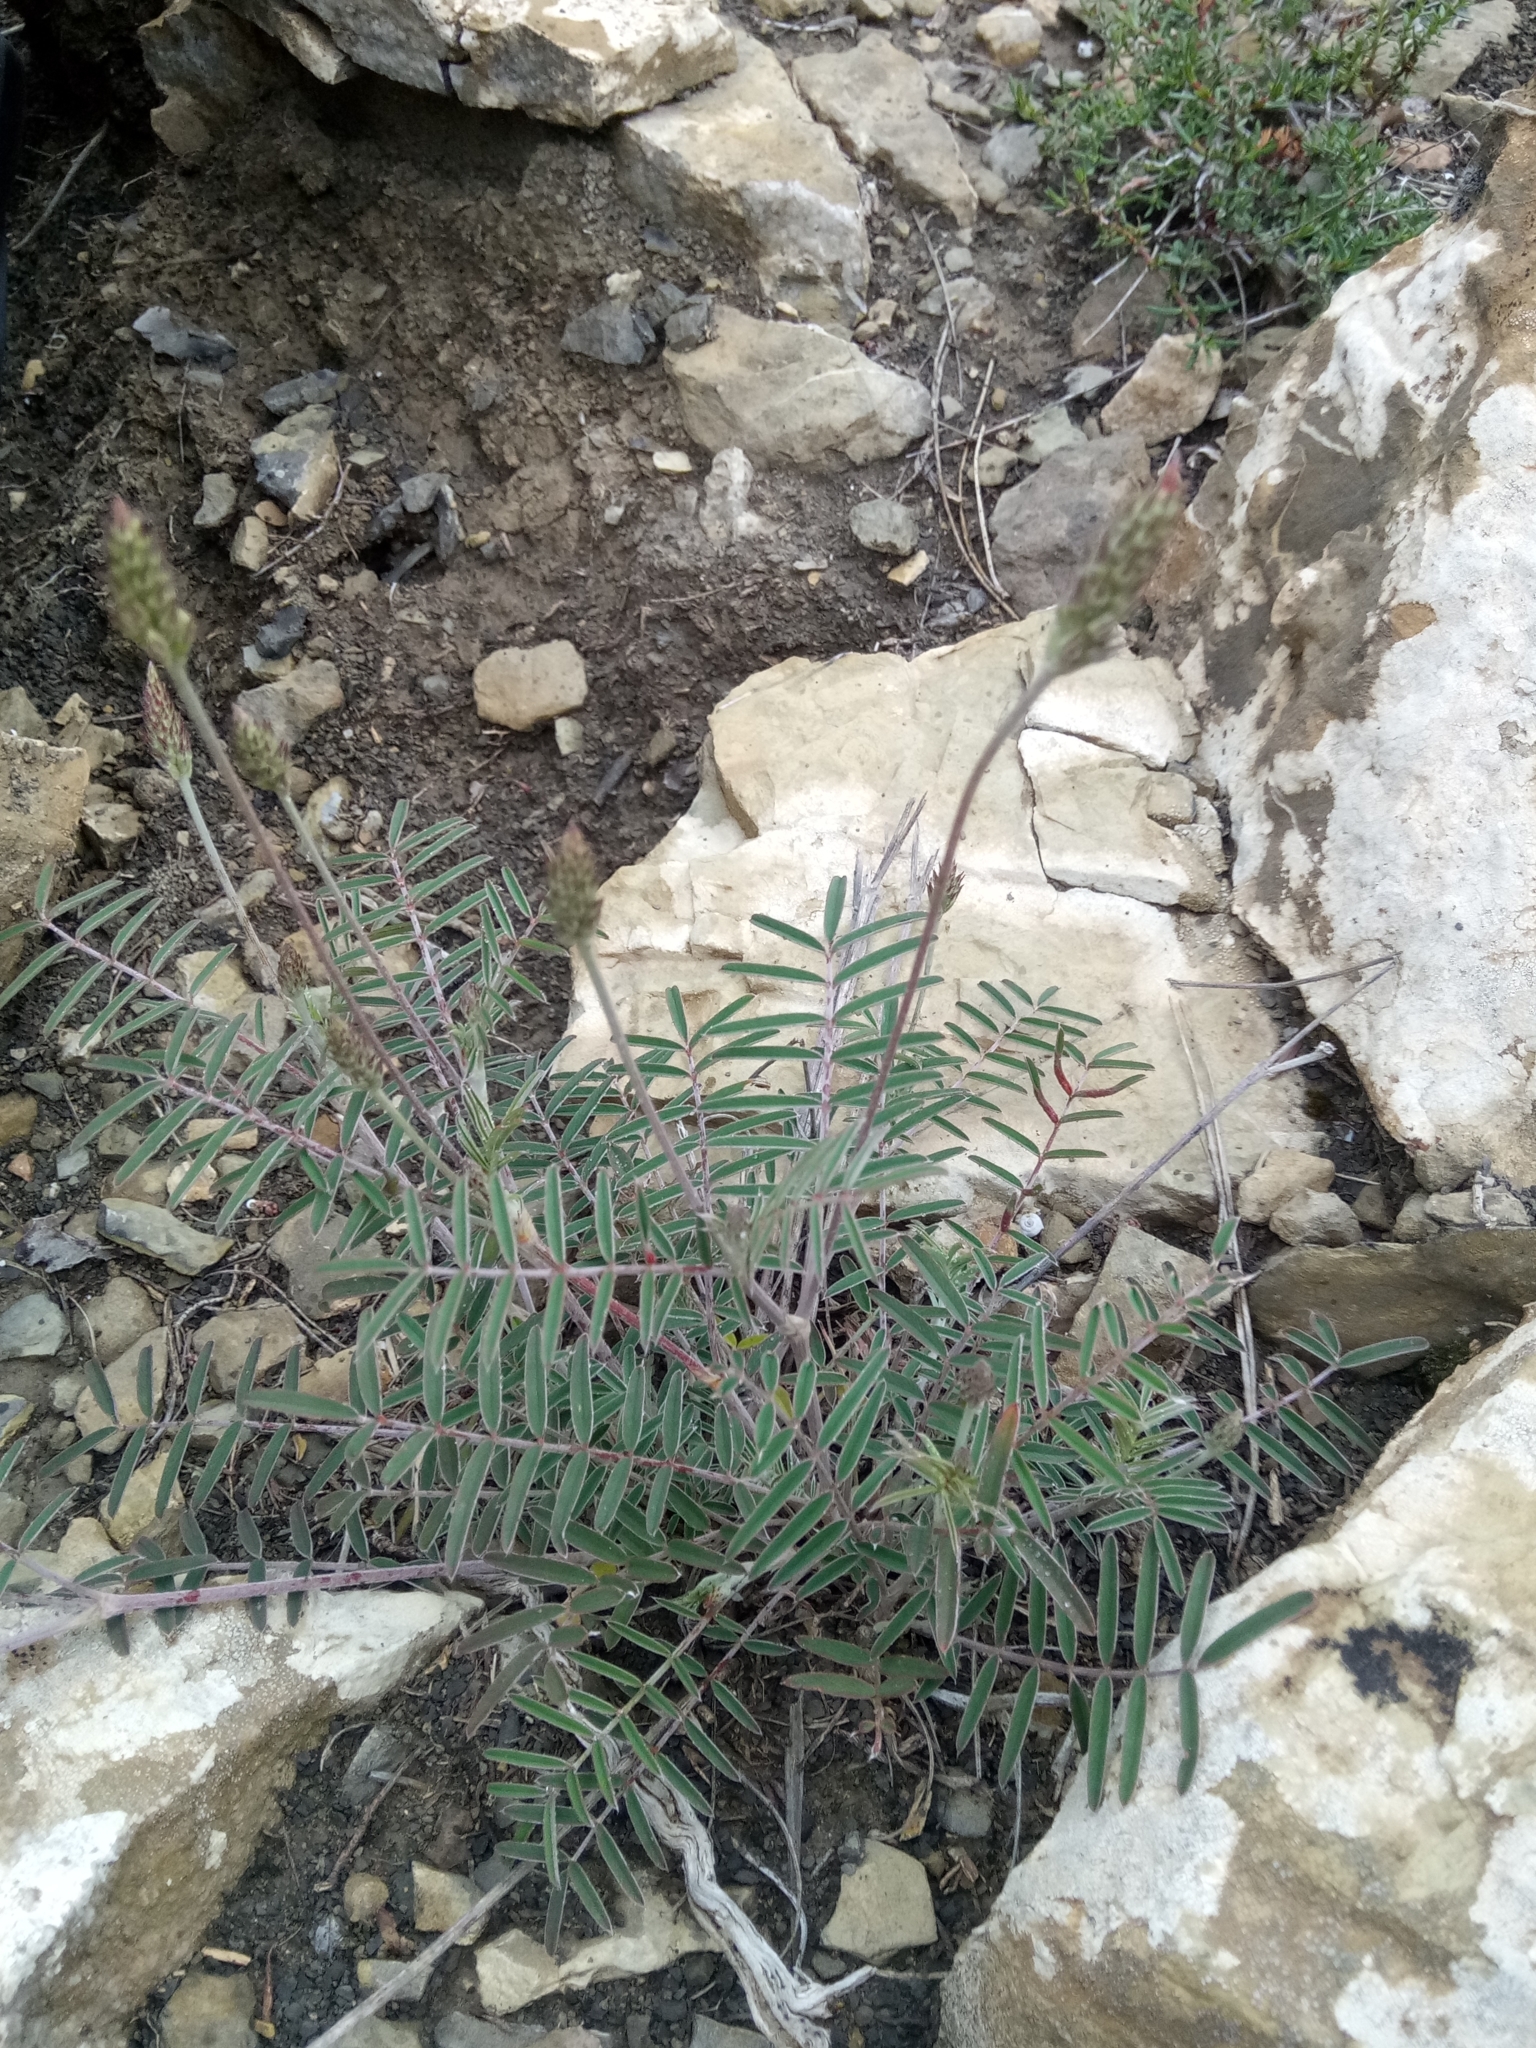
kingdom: Plantae
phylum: Tracheophyta
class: Magnoliopsida
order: Fabales
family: Fabaceae
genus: Onobrychis
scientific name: Onobrychis alba
